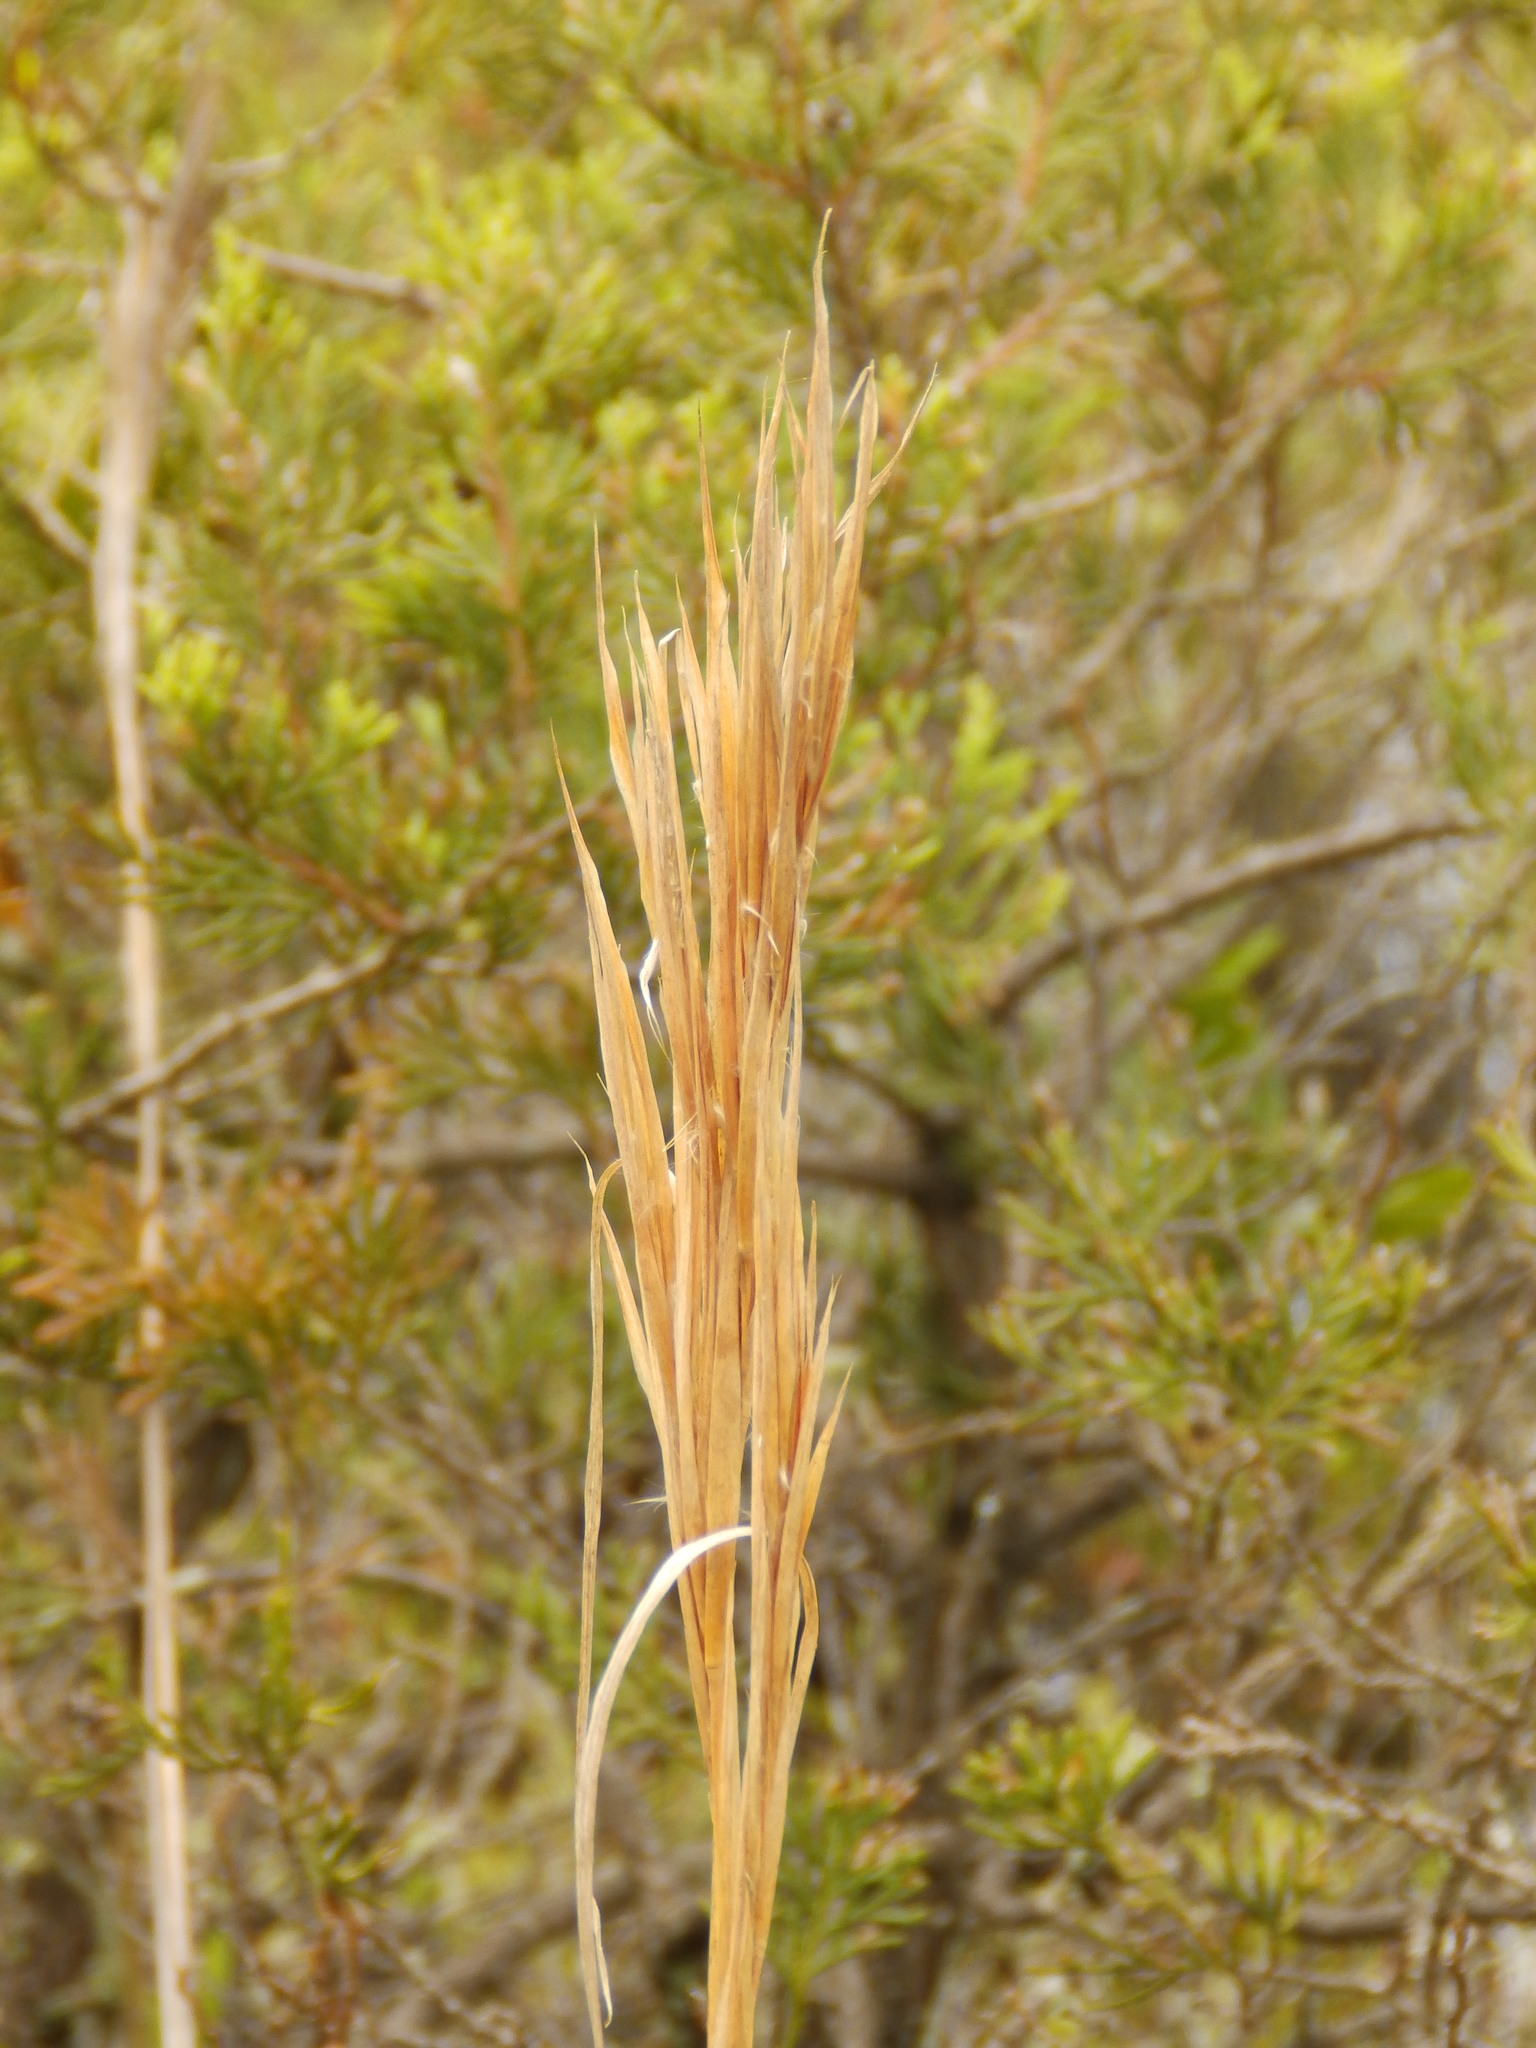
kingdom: Plantae
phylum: Tracheophyta
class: Liliopsida
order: Poales
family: Poaceae
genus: Andropogon
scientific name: Andropogon glomeratus
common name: Bushy beard grass
